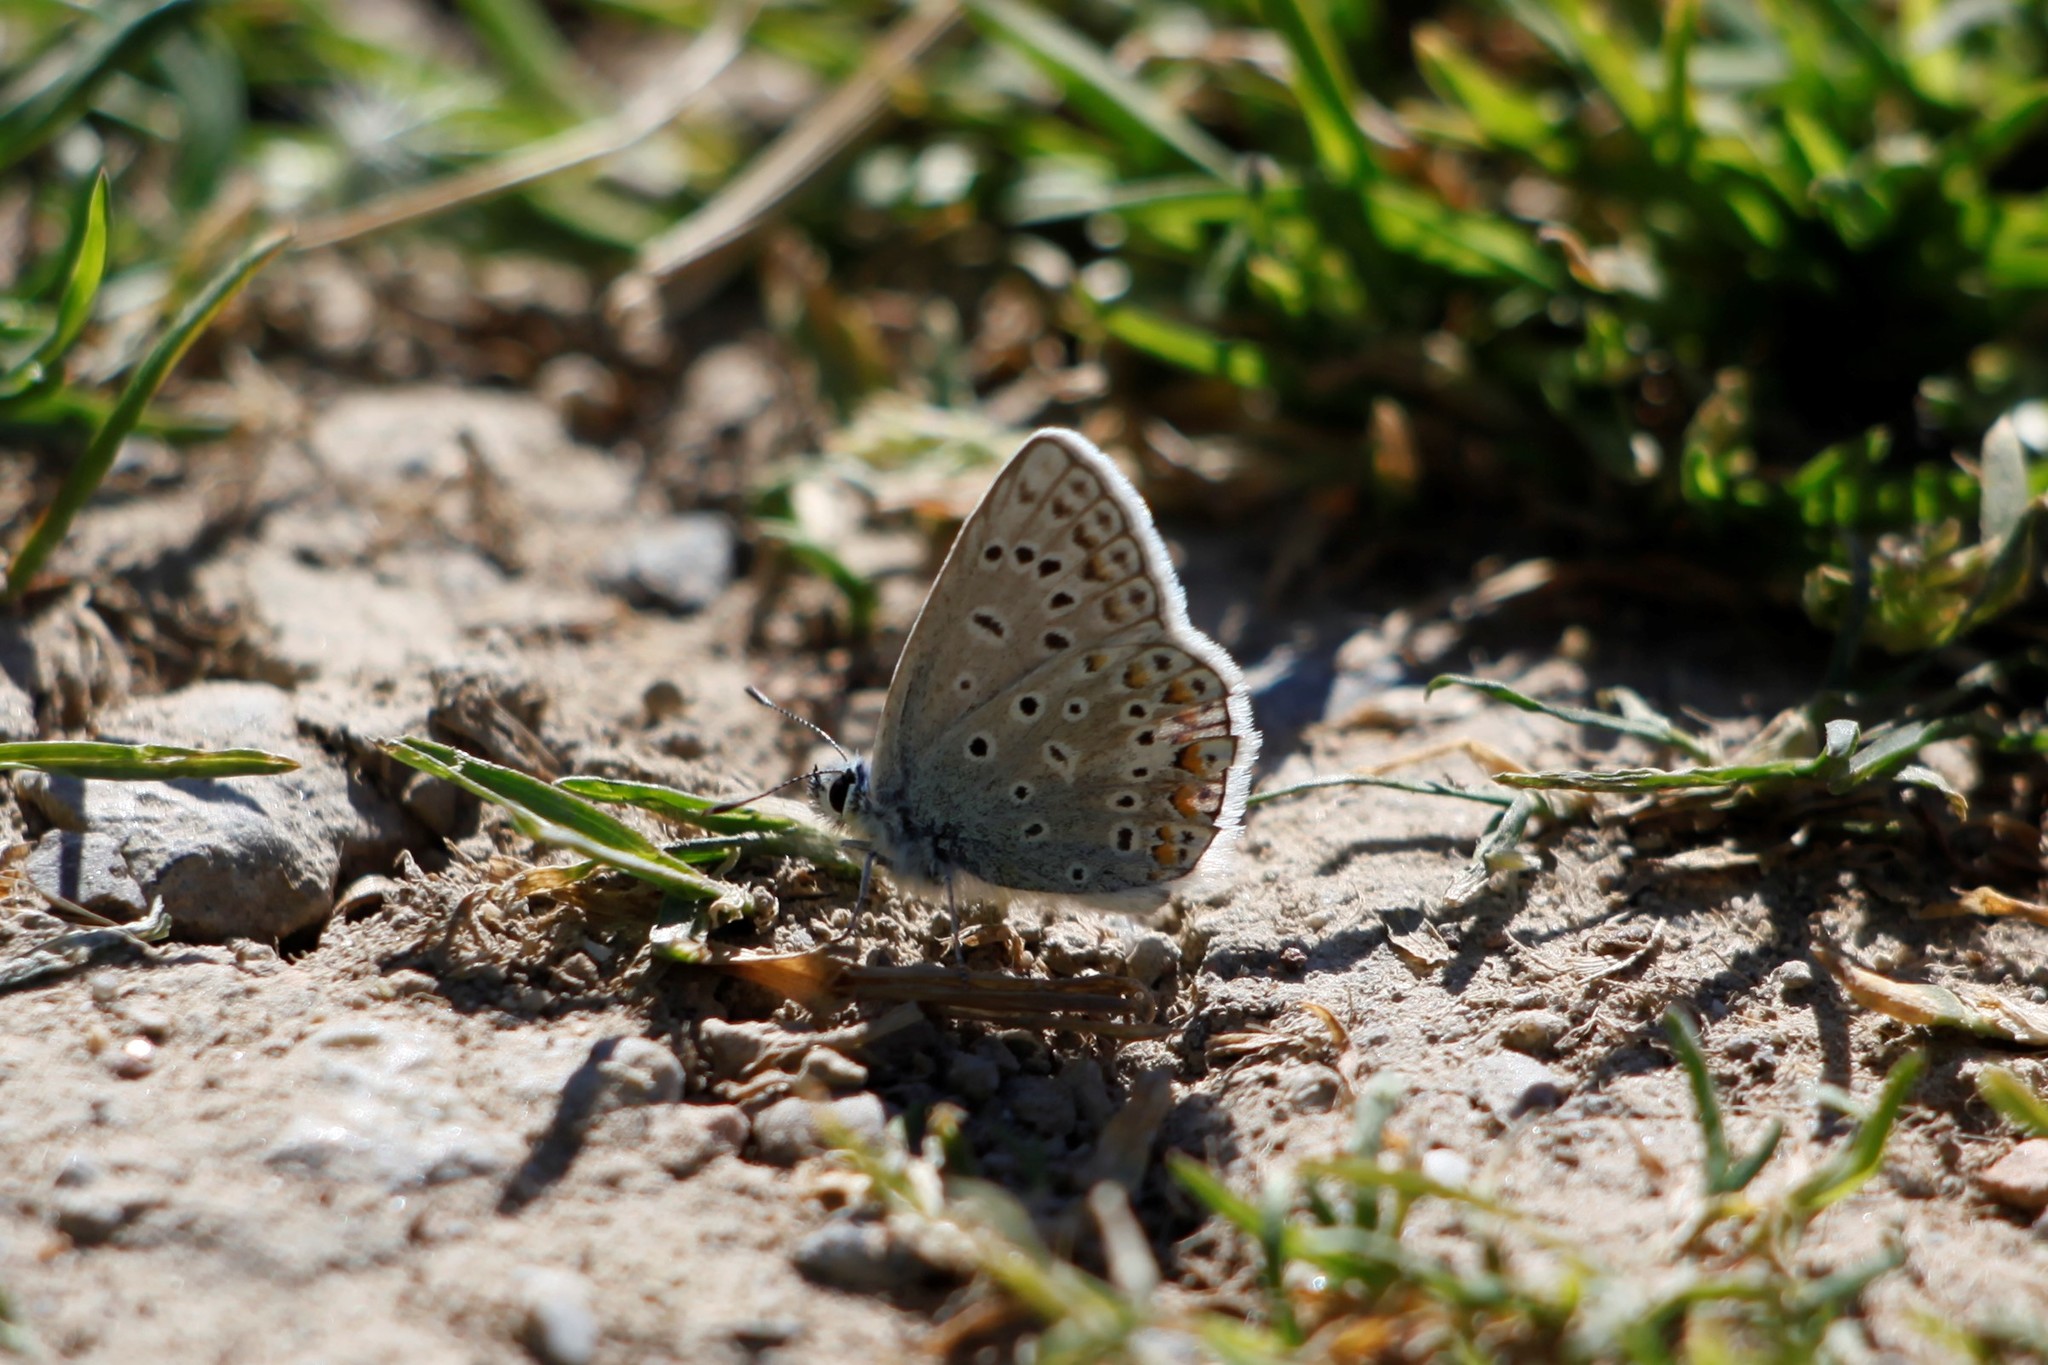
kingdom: Animalia
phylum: Arthropoda
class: Insecta
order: Lepidoptera
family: Lycaenidae
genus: Polyommatus
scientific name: Polyommatus icarus
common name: Common blue
